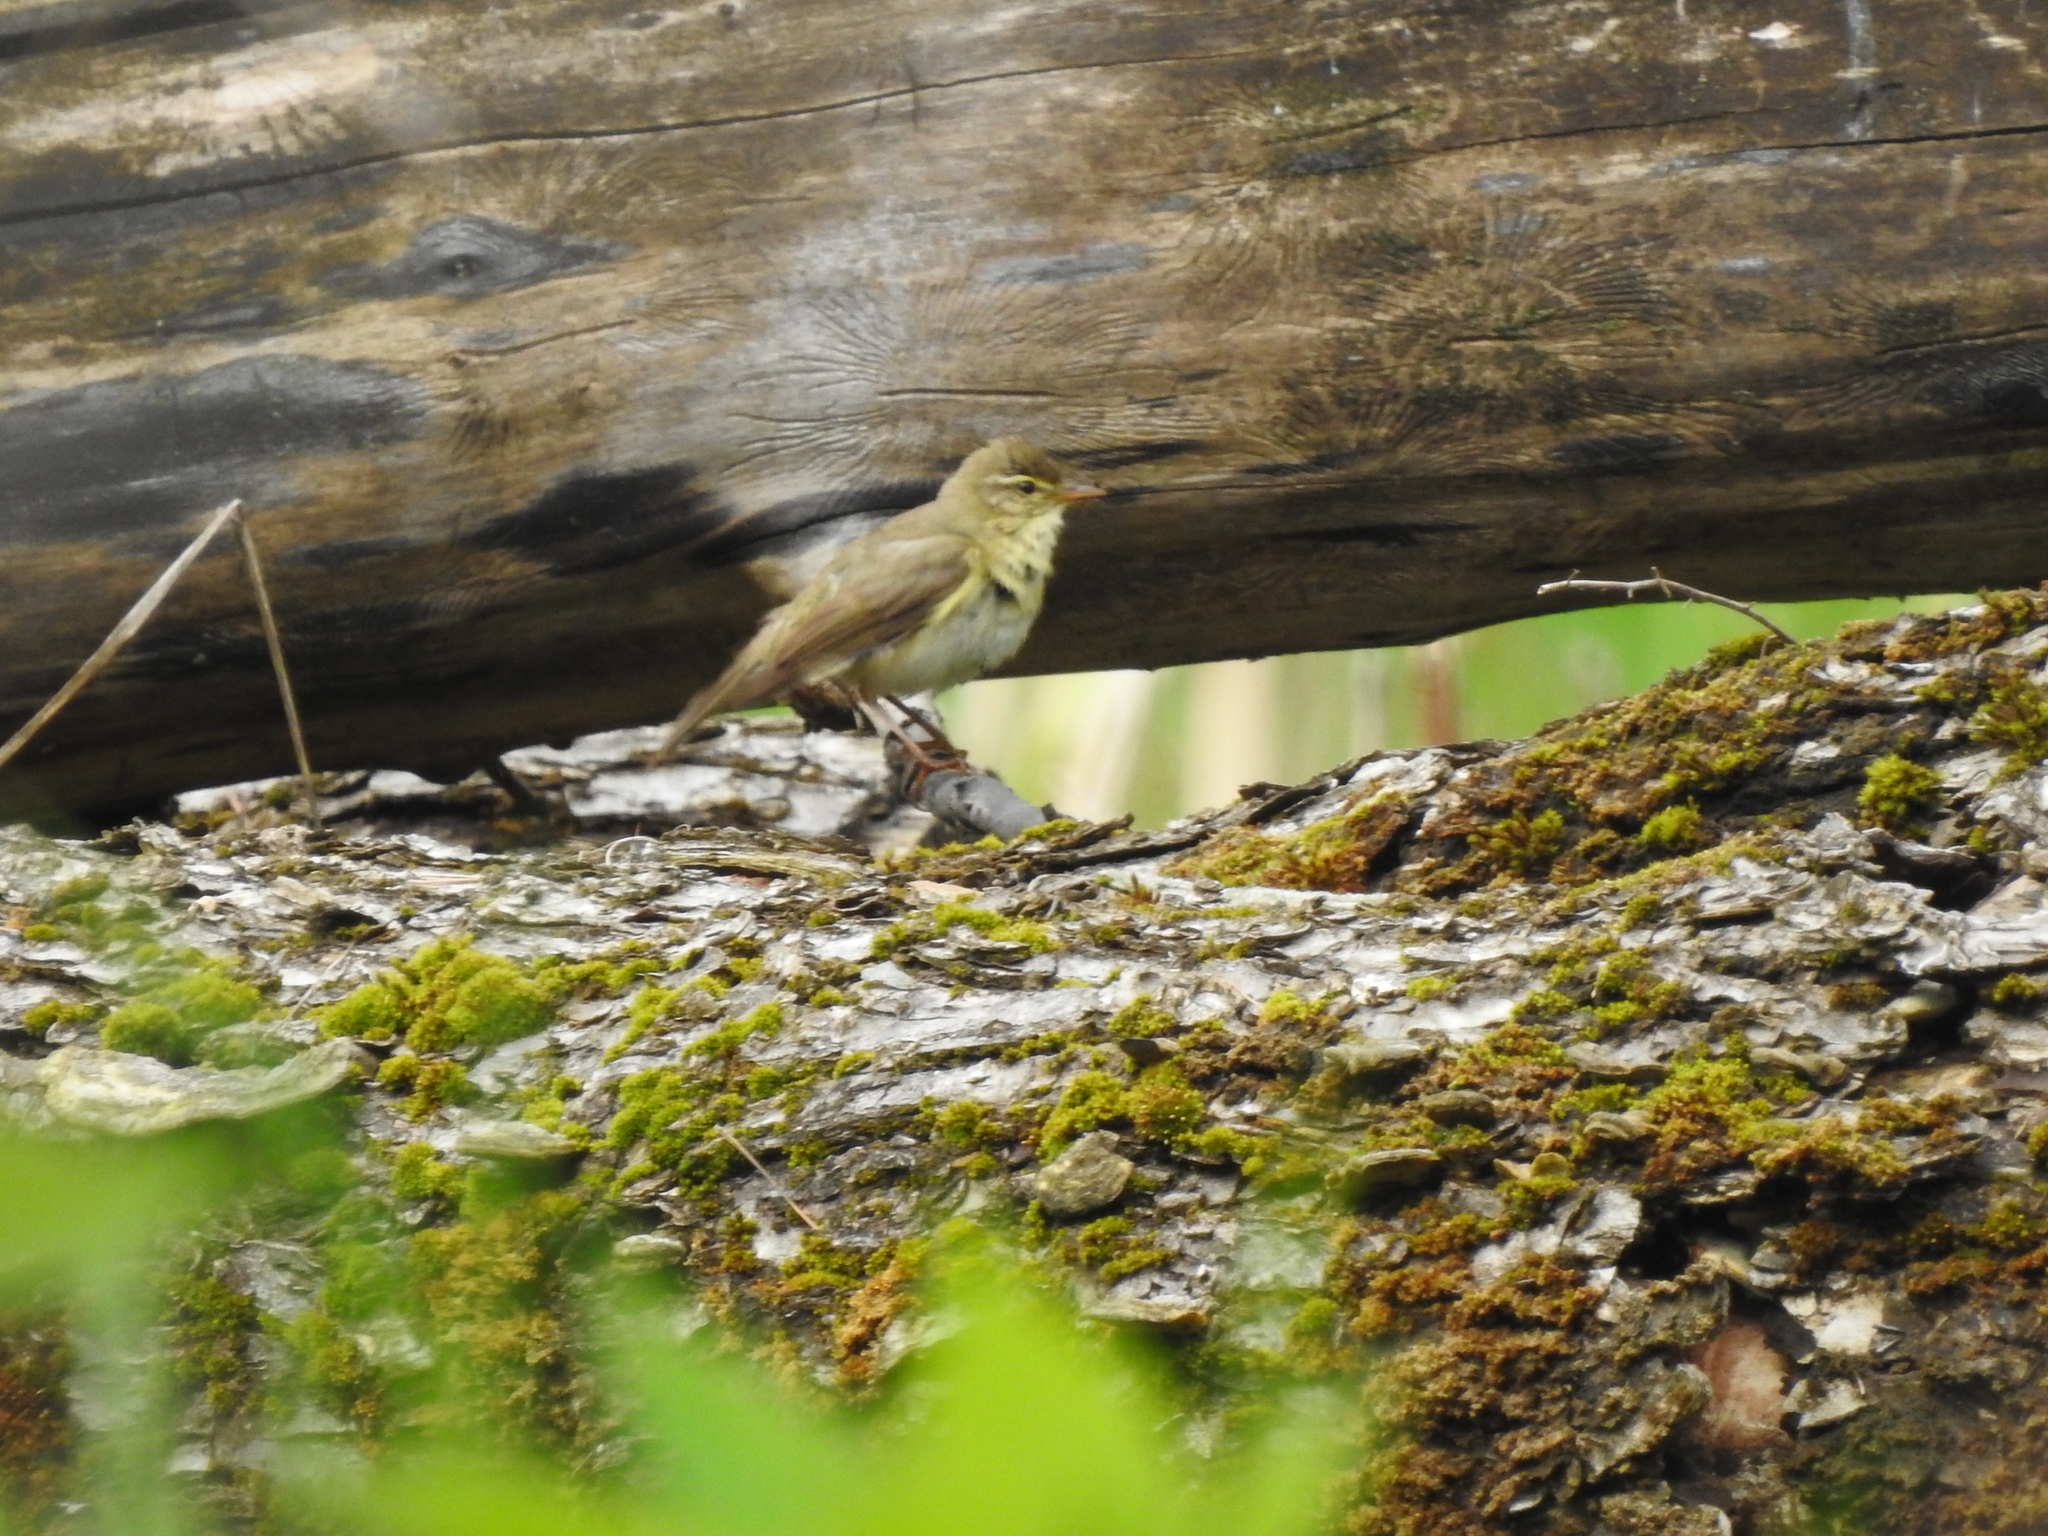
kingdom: Animalia
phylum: Chordata
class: Aves
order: Passeriformes
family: Phylloscopidae
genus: Phylloscopus
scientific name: Phylloscopus sibillatrix
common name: Wood warbler
